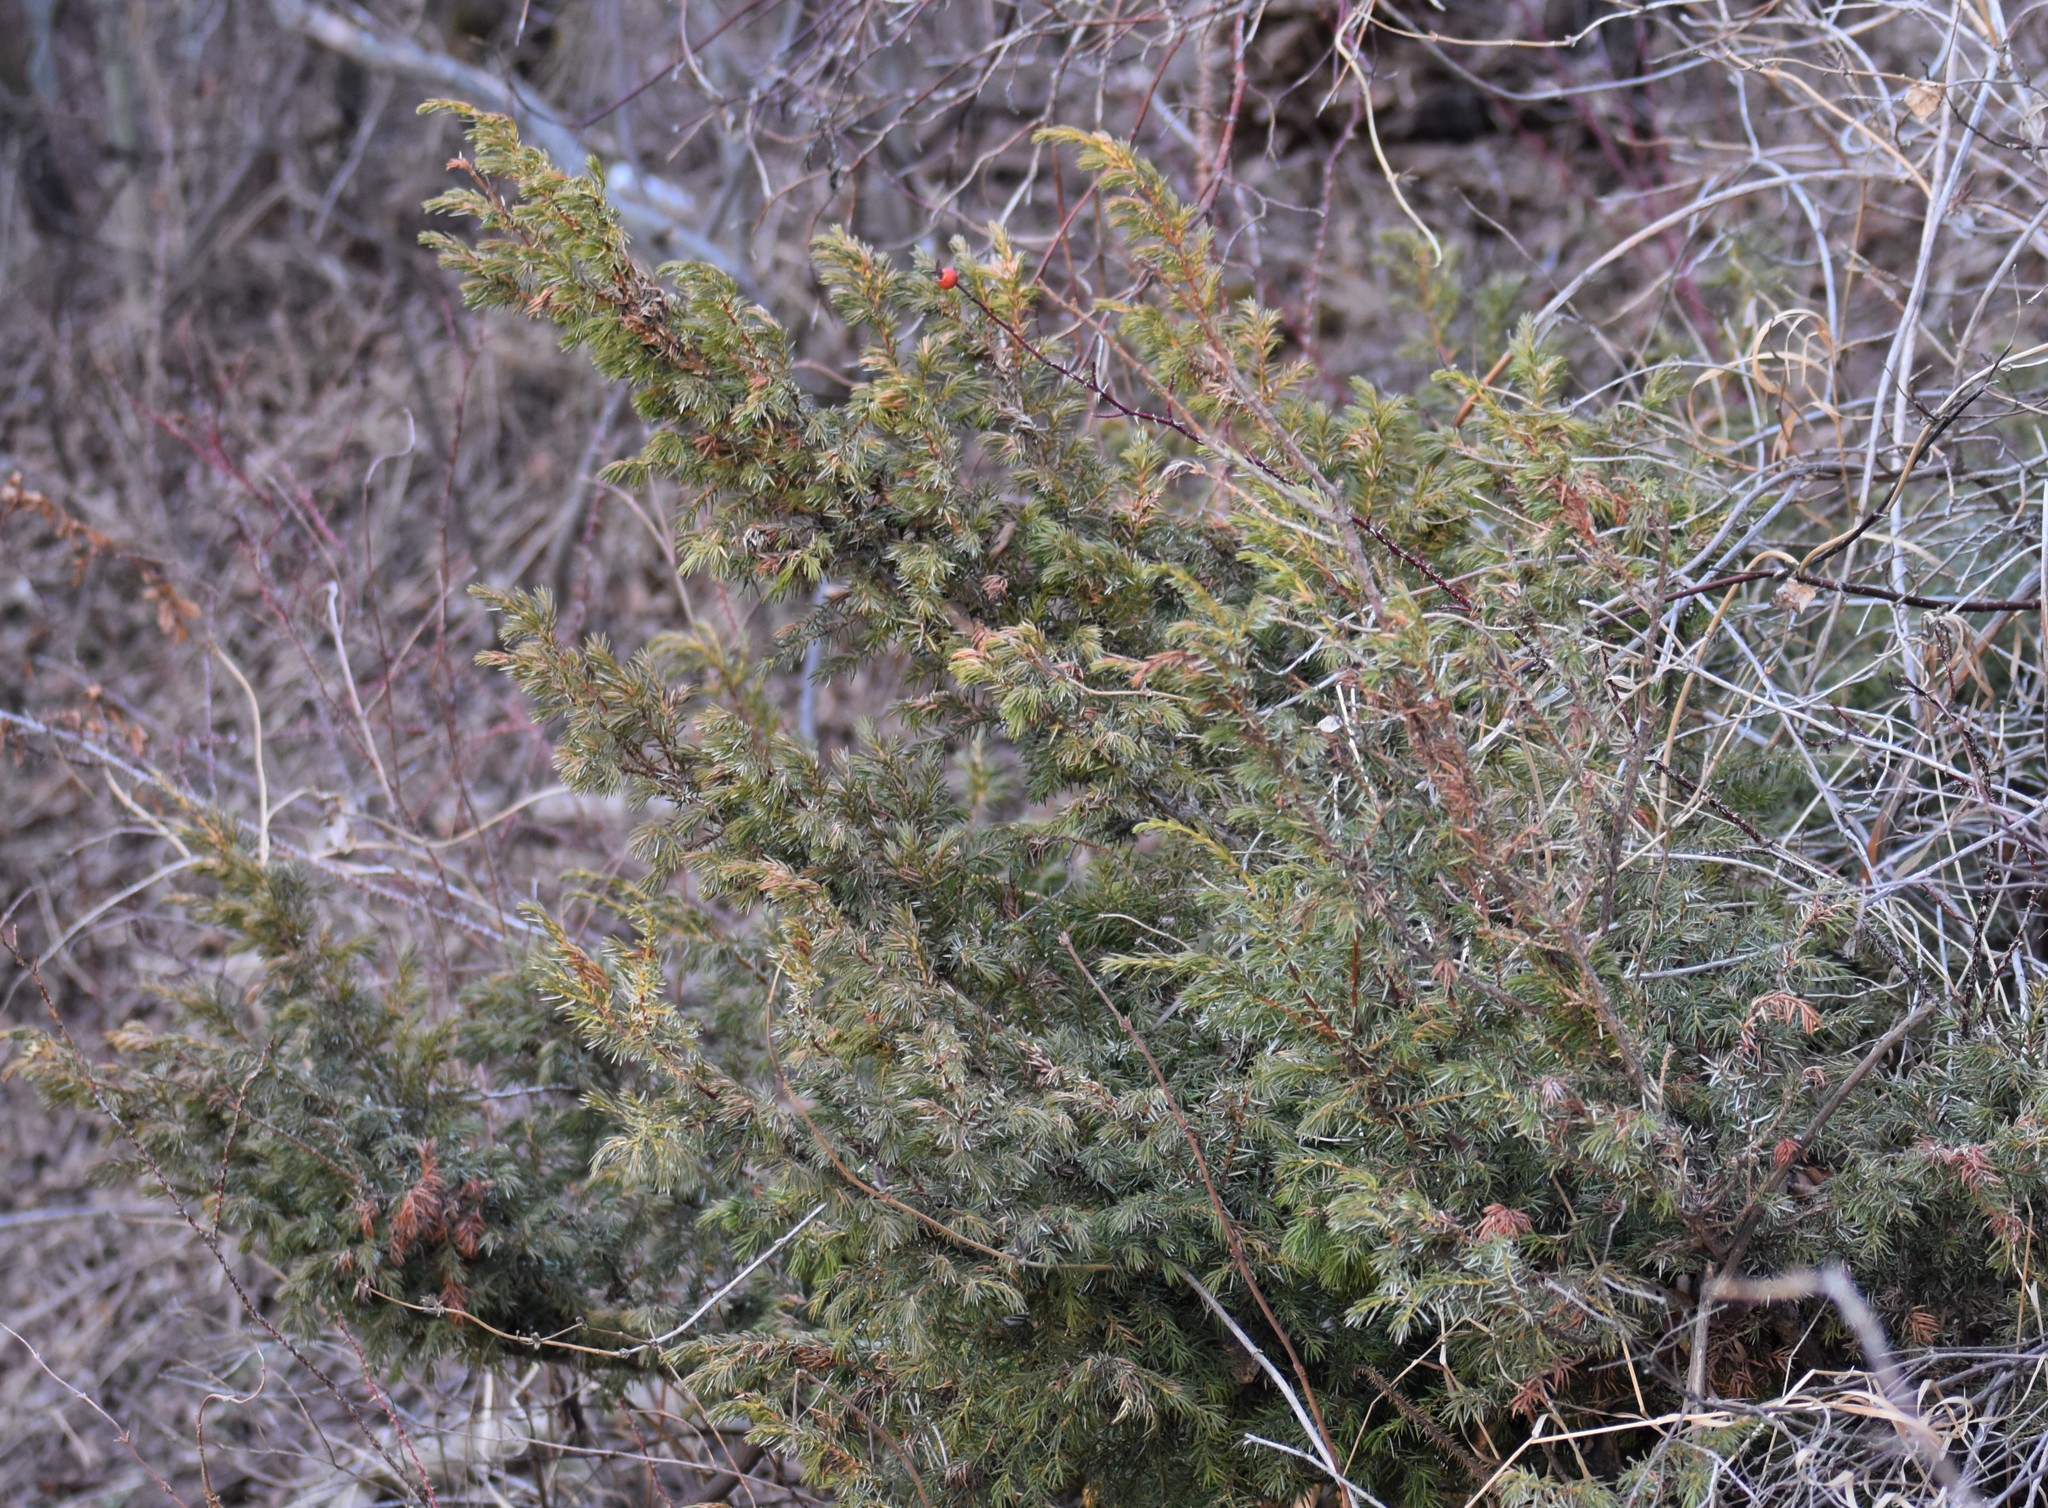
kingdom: Plantae
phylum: Tracheophyta
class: Pinopsida
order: Pinales
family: Cupressaceae
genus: Juniperus
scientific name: Juniperus communis
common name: Common juniper
